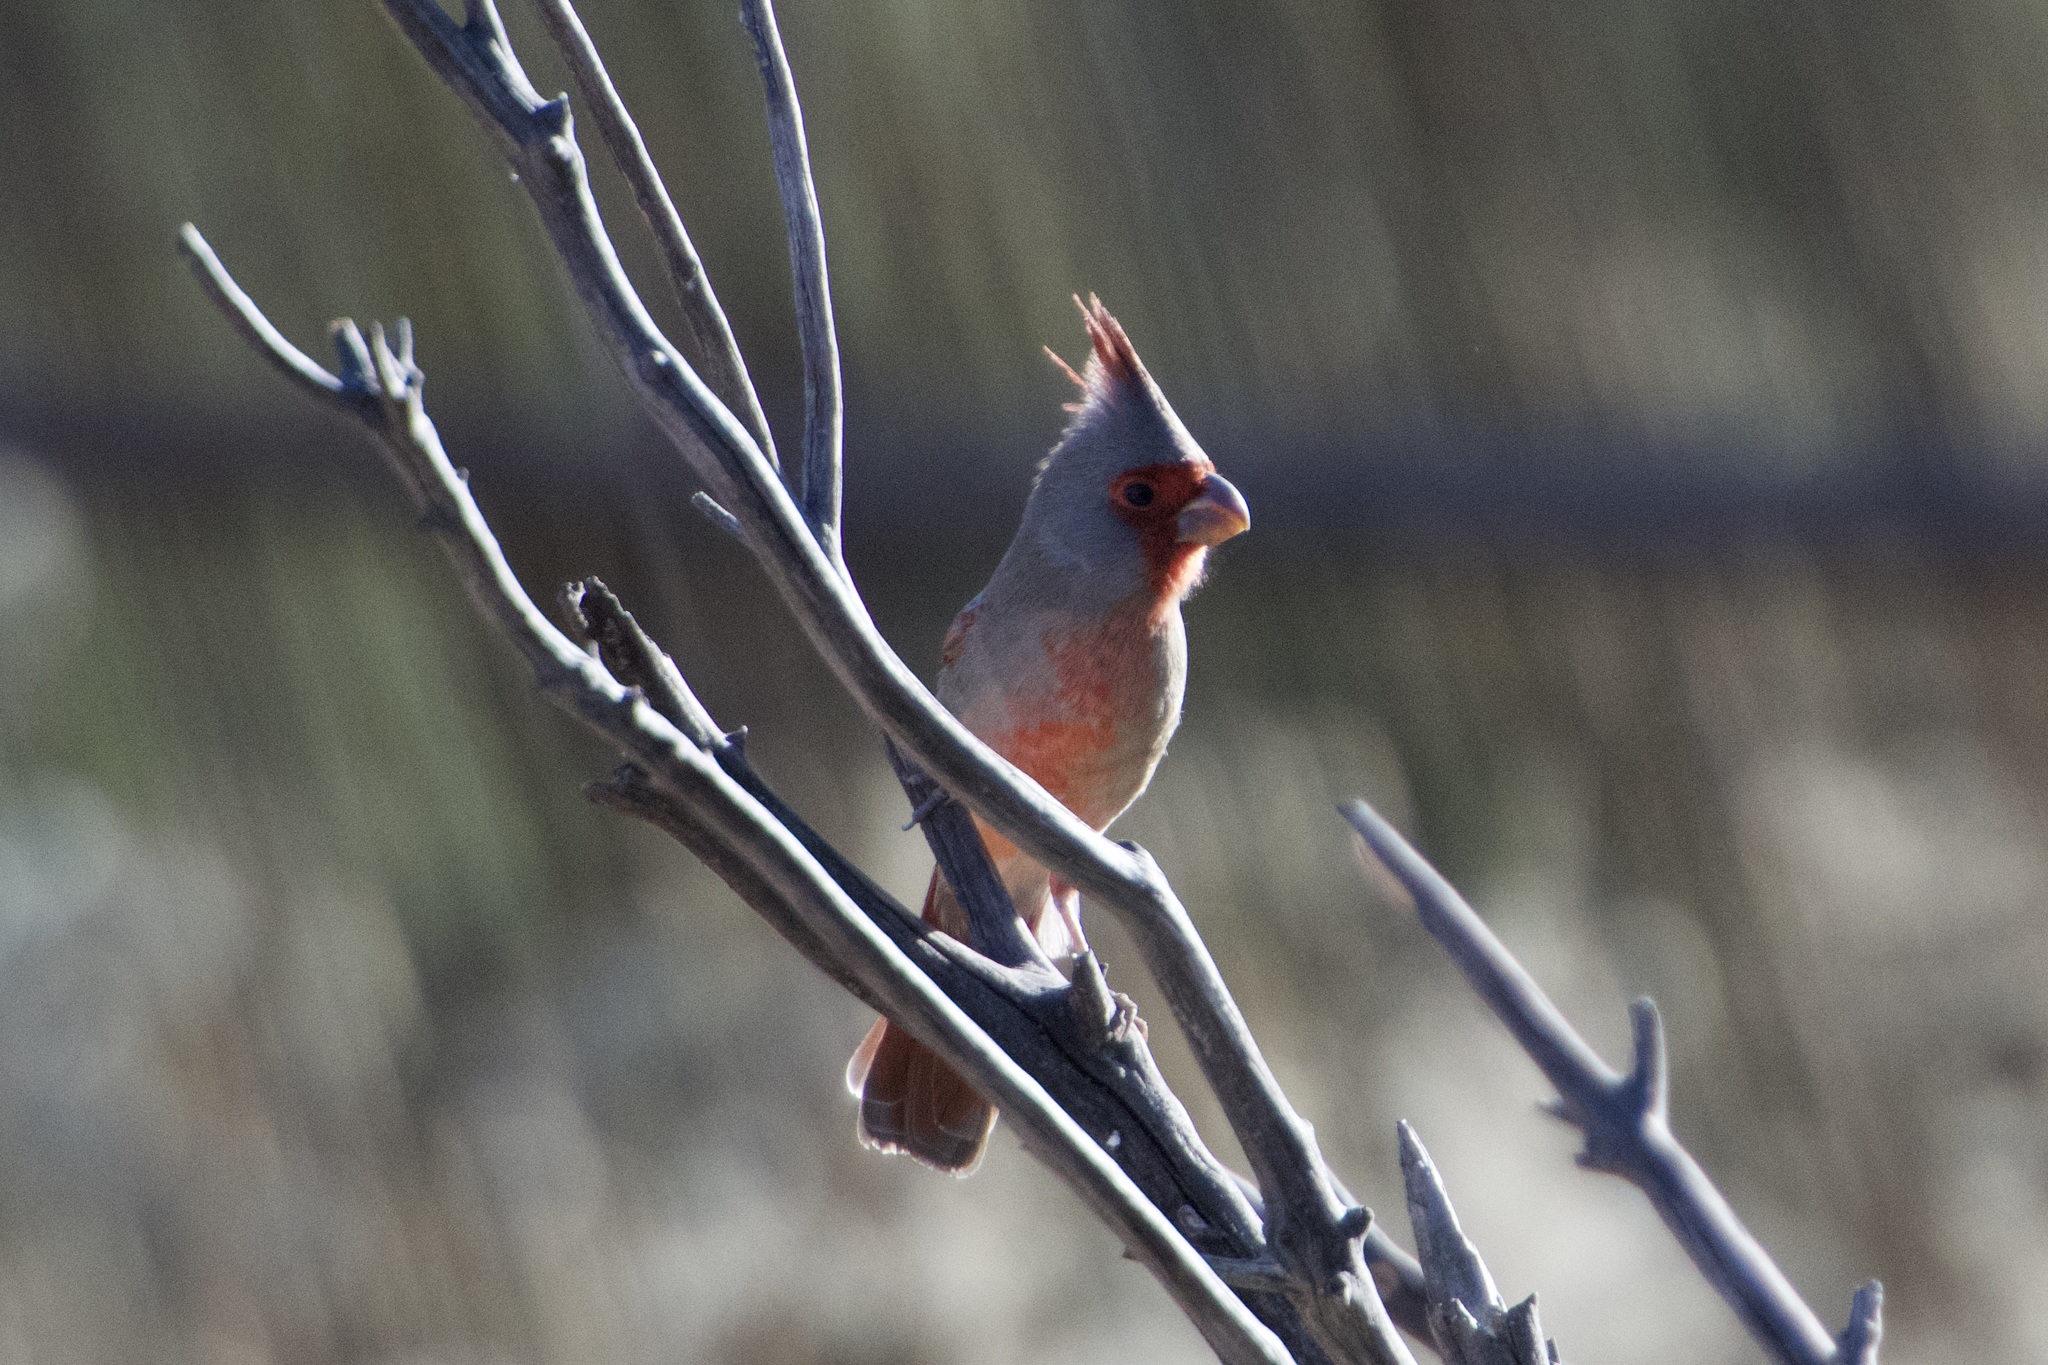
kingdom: Animalia
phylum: Chordata
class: Aves
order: Passeriformes
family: Cardinalidae
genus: Cardinalis
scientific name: Cardinalis sinuatus
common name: Pyrrhuloxia
